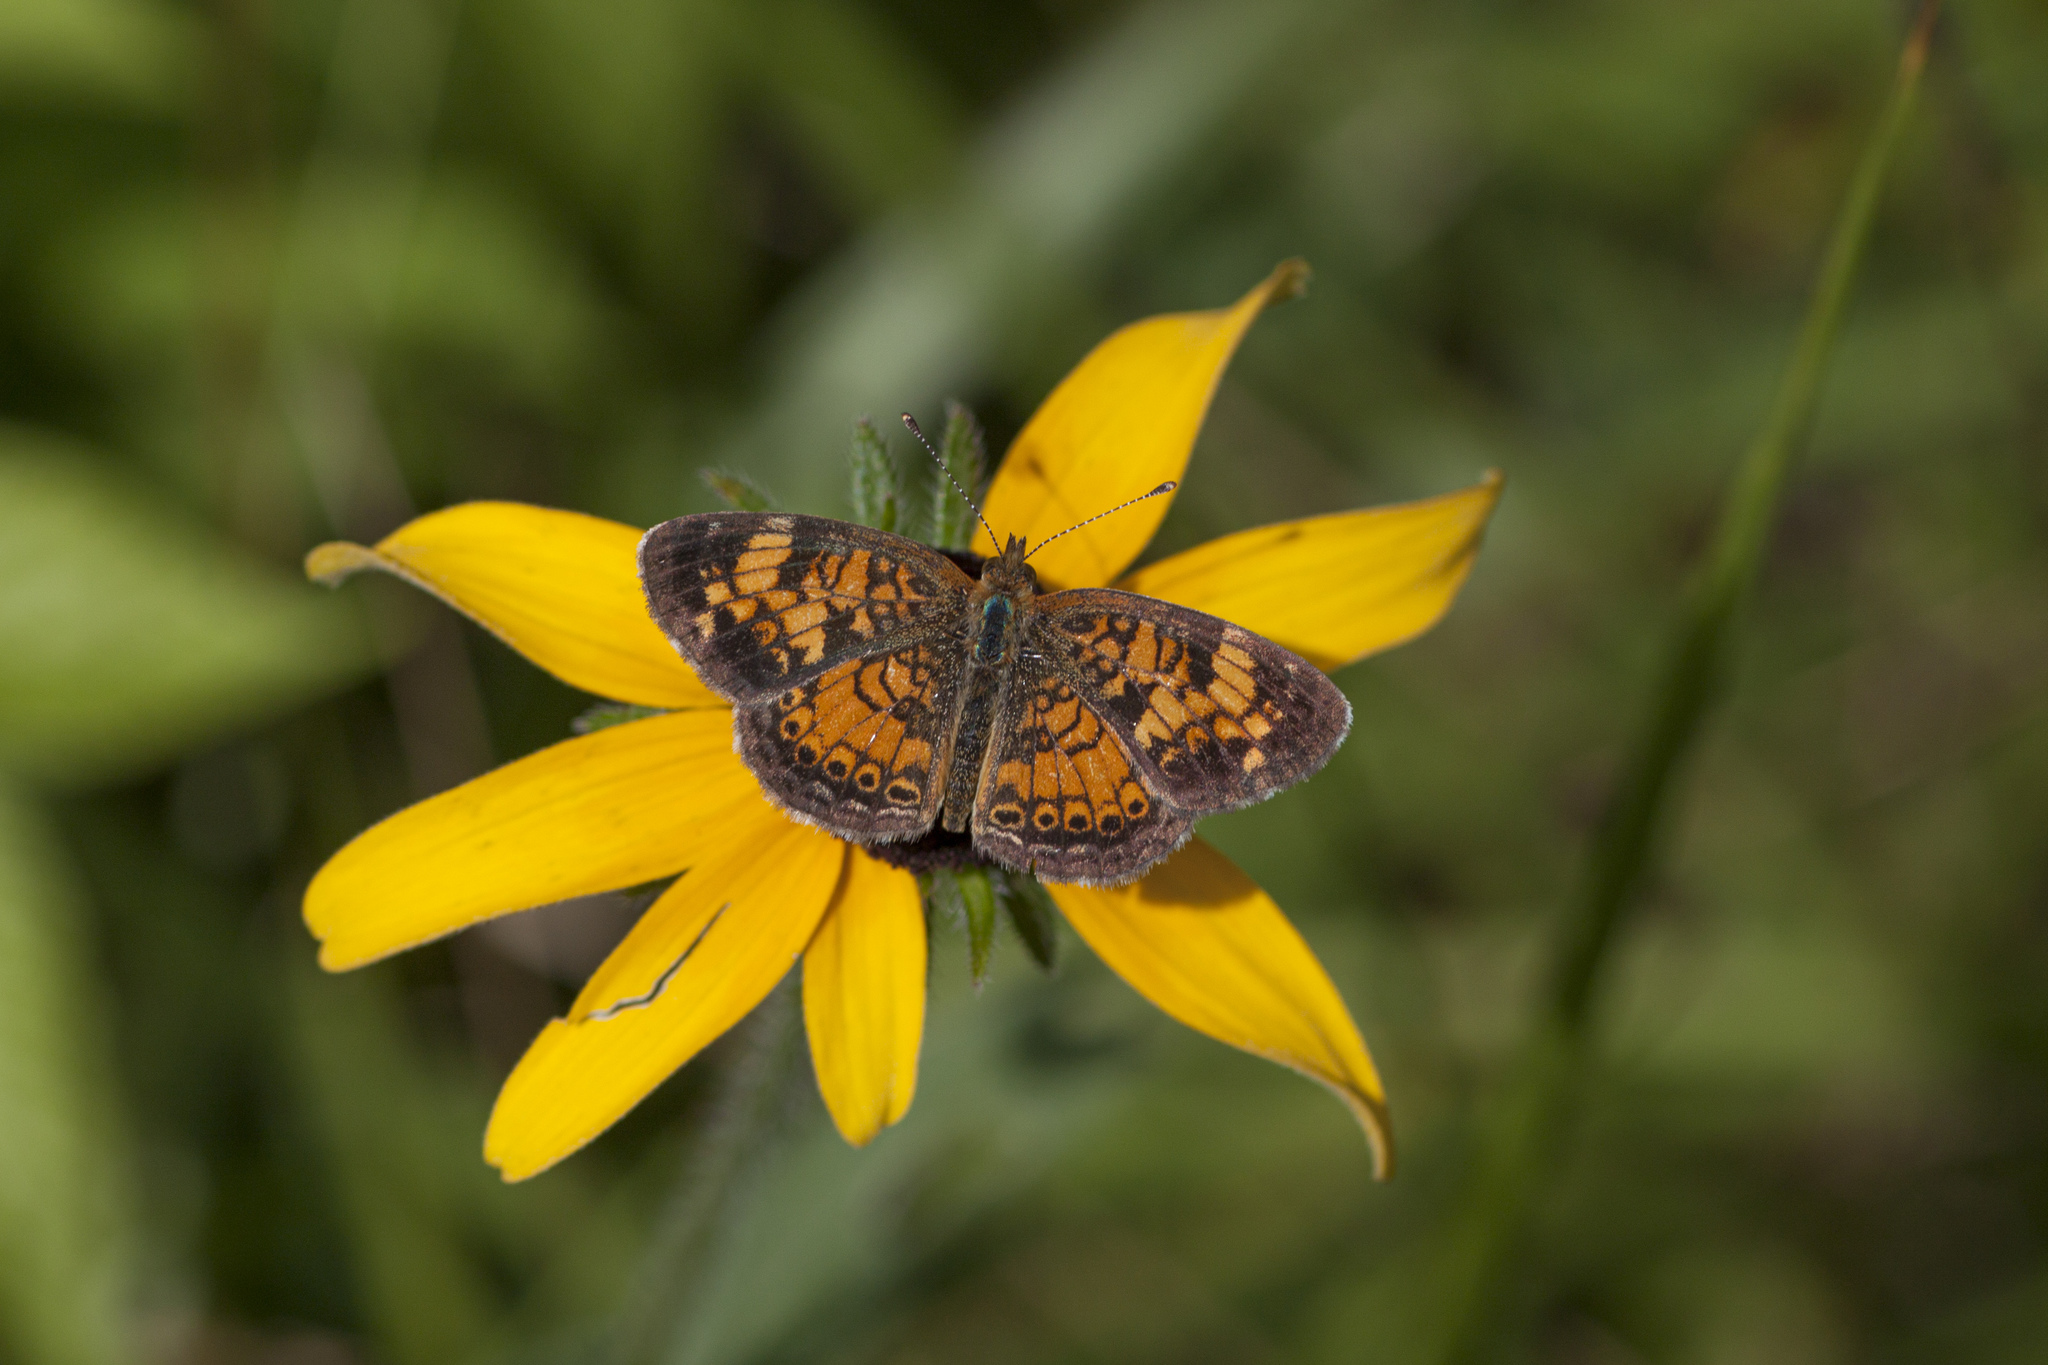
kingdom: Animalia
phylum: Arthropoda
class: Insecta
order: Lepidoptera
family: Nymphalidae
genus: Phyciodes
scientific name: Phyciodes tharos
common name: Pearl crescent
